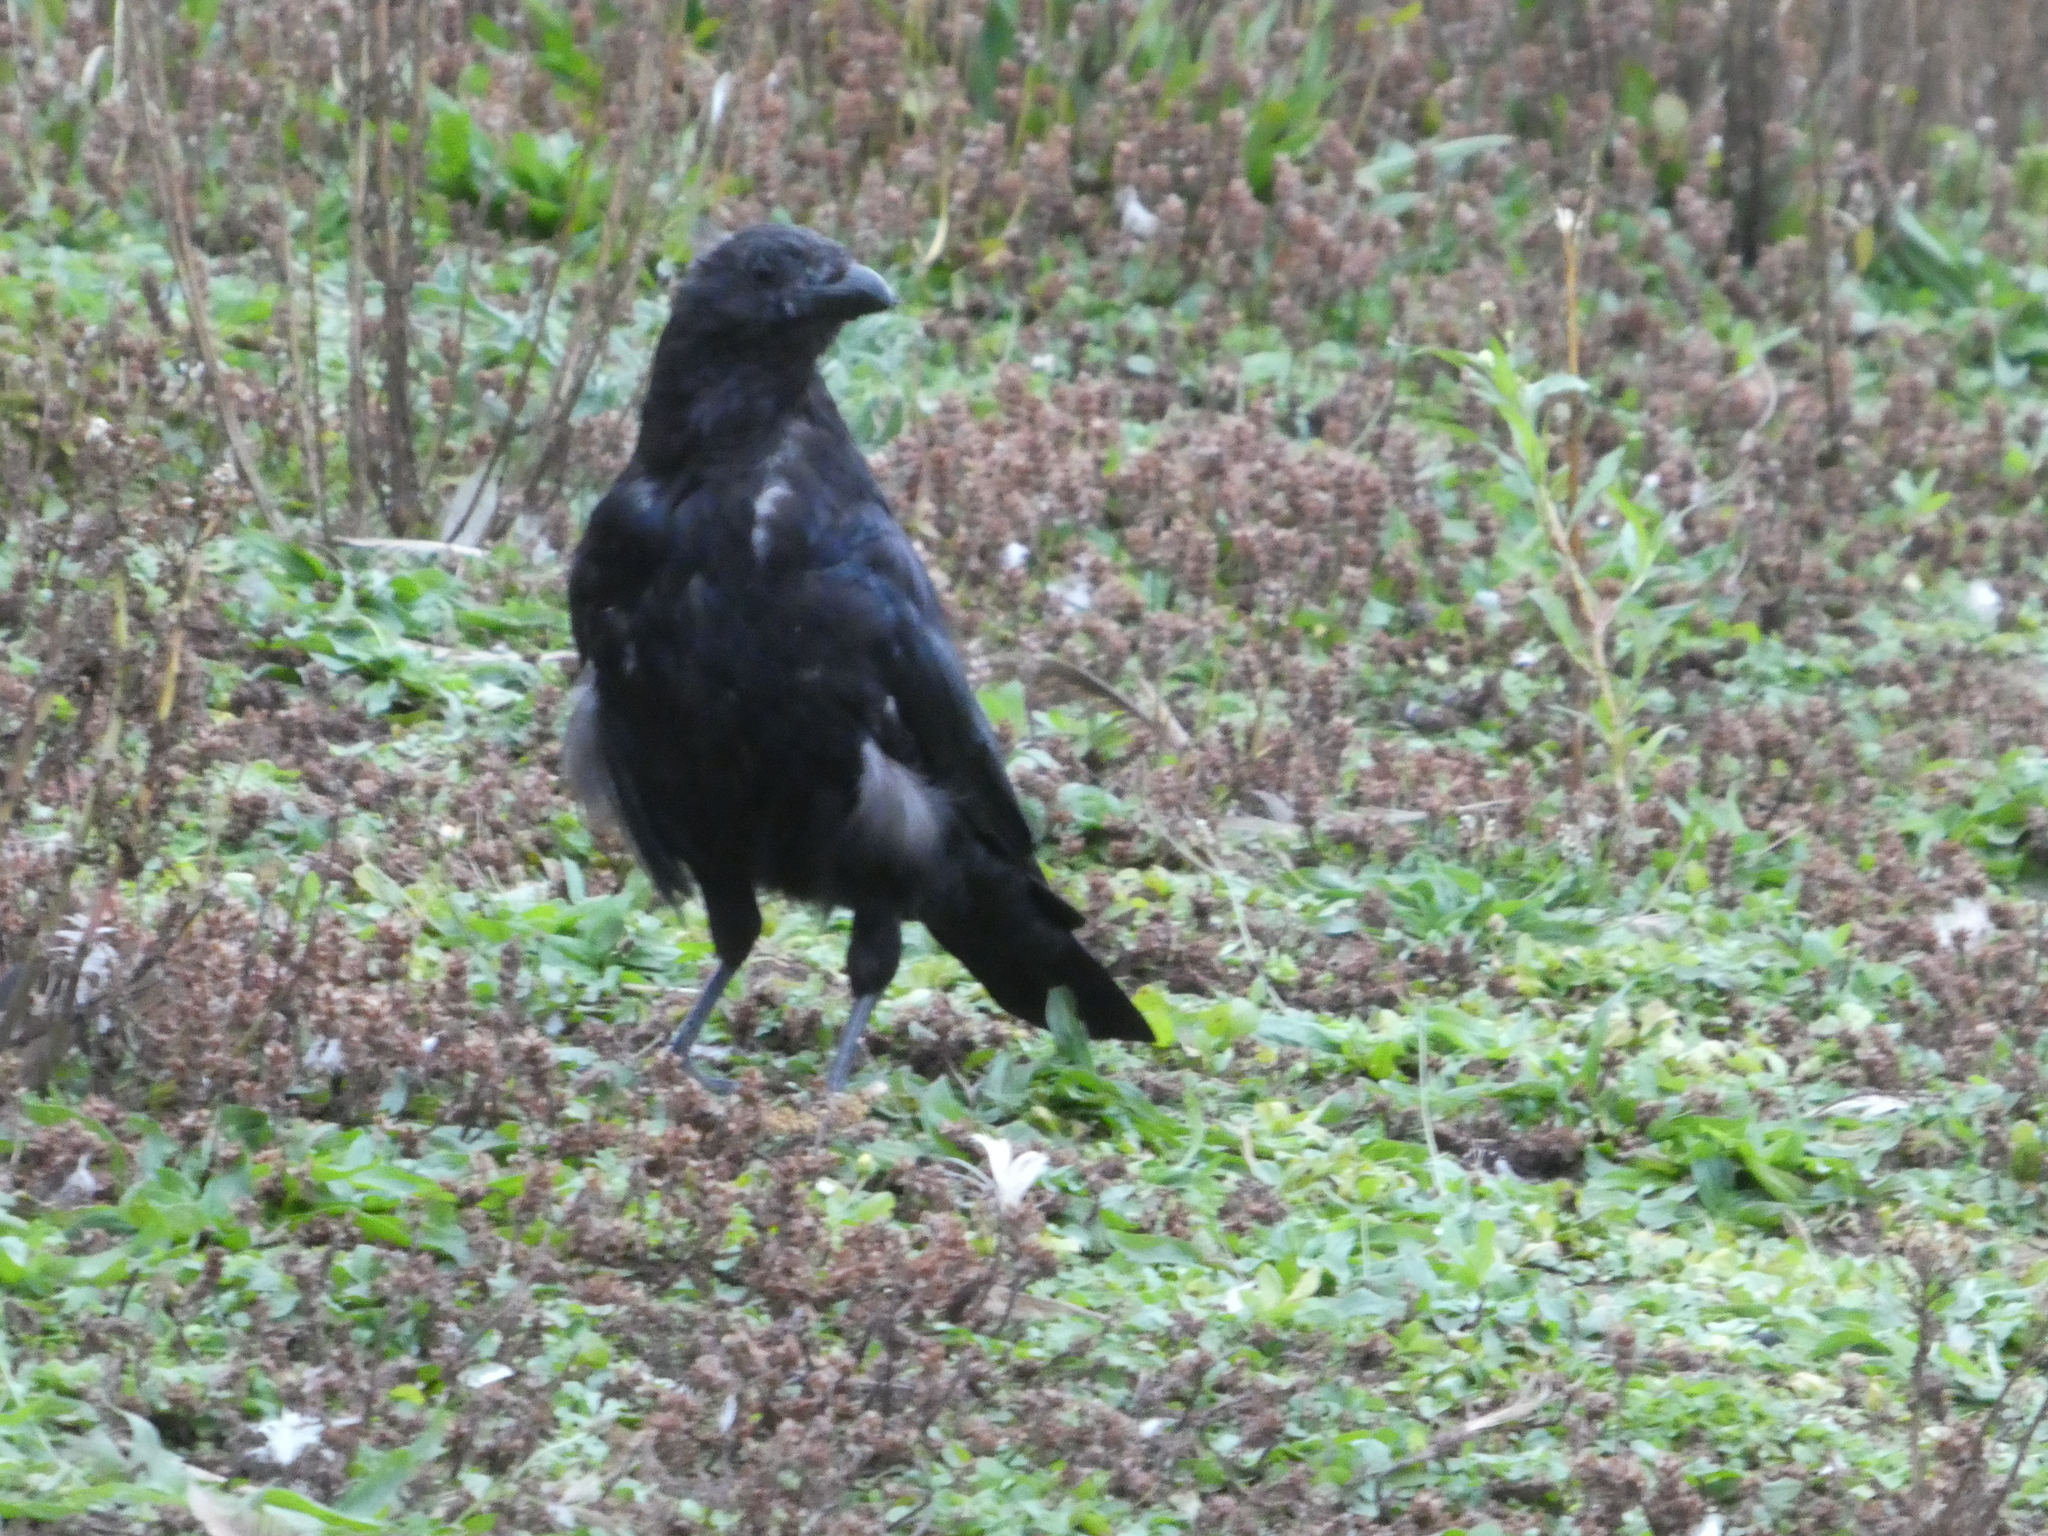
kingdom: Animalia
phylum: Chordata
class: Aves
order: Passeriformes
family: Corvidae
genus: Corvus
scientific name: Corvus corone
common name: Carrion crow
